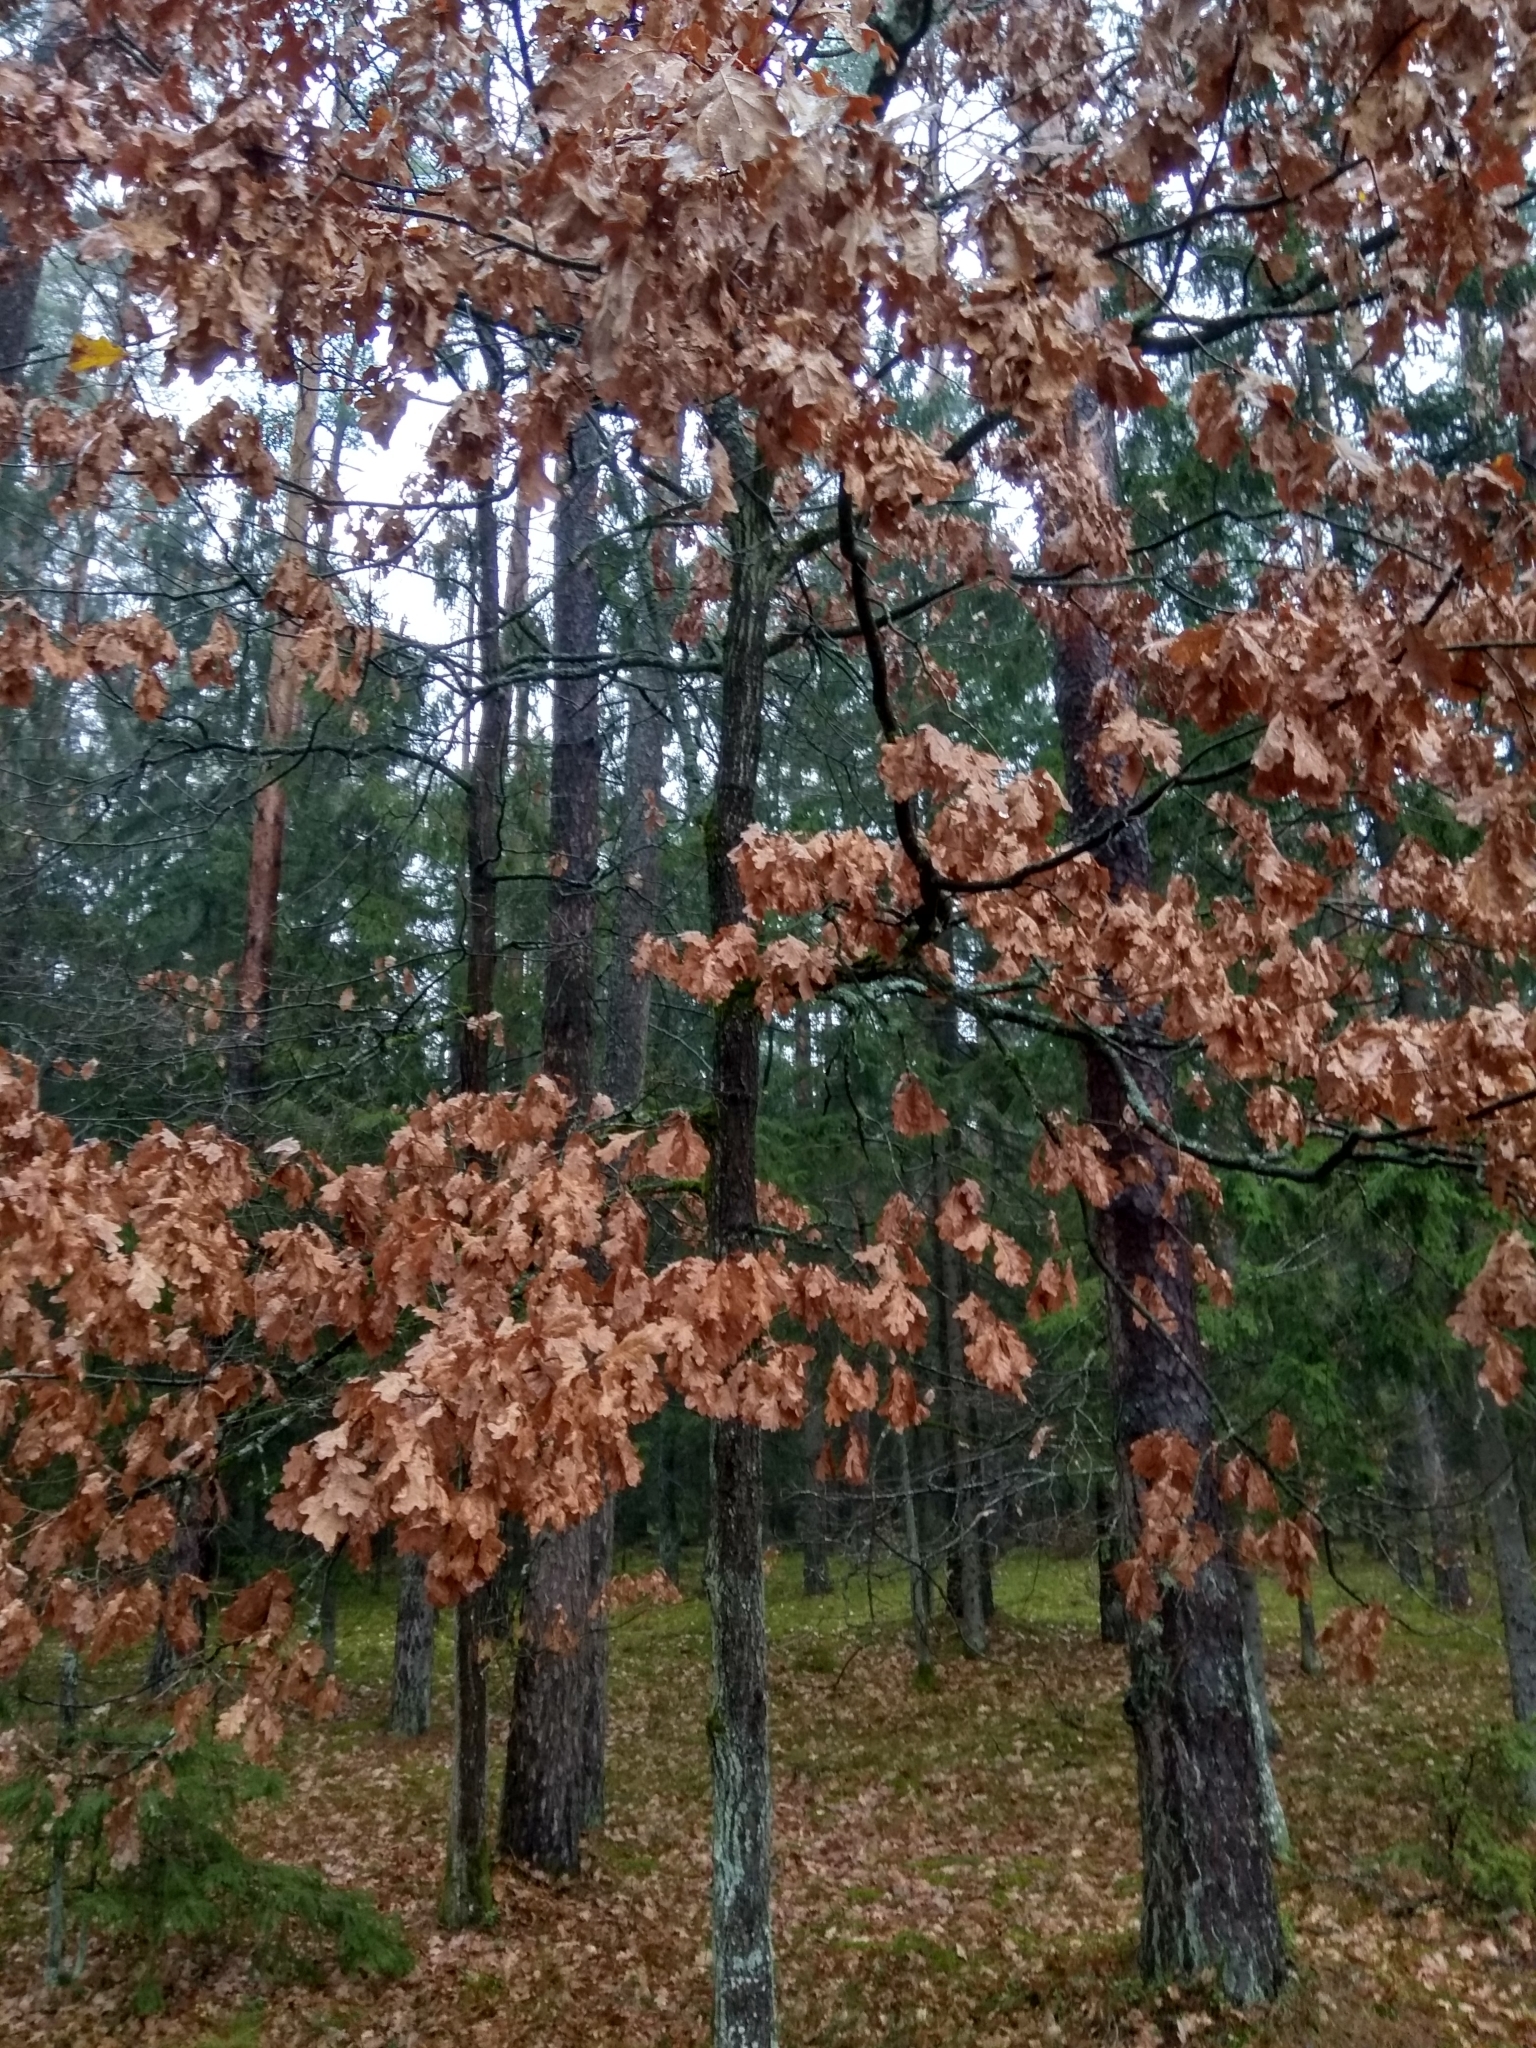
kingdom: Plantae
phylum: Tracheophyta
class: Magnoliopsida
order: Fagales
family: Fagaceae
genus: Quercus
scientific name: Quercus robur
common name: Pedunculate oak
